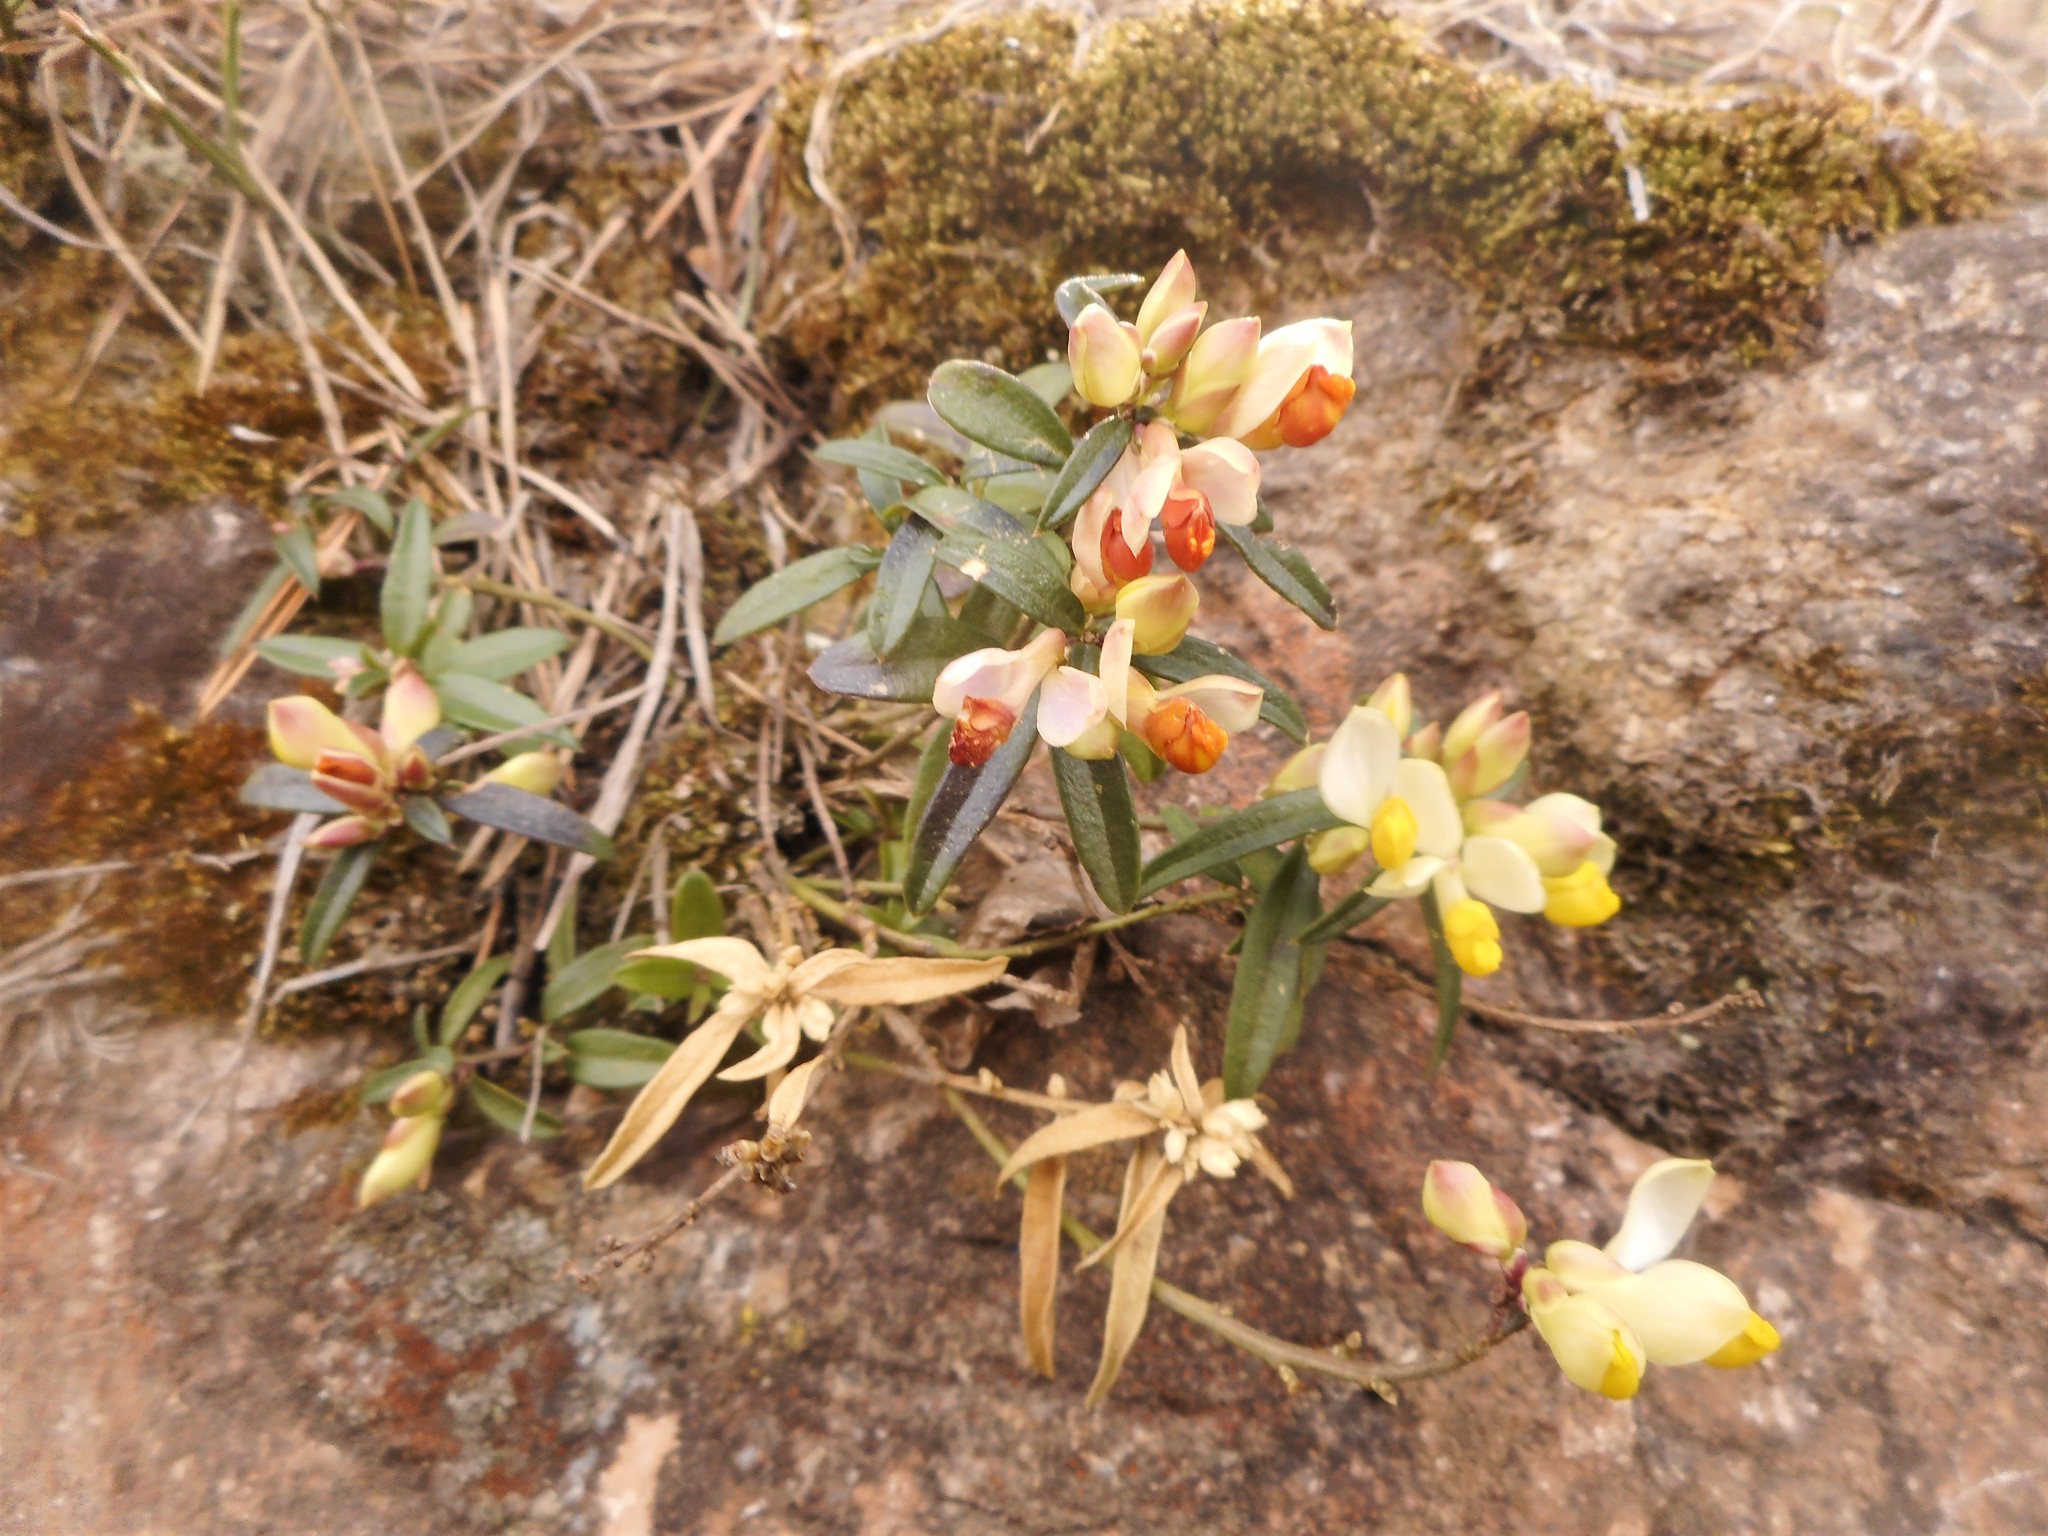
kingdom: Plantae
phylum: Tracheophyta
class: Magnoliopsida
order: Fabales
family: Polygalaceae
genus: Polygaloides
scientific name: Polygaloides chamaebuxus
